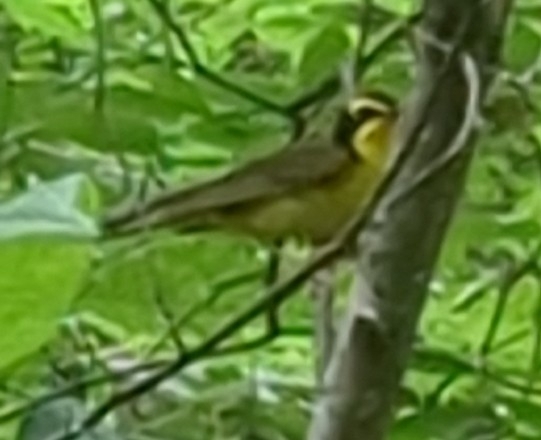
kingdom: Animalia
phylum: Chordata
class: Aves
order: Passeriformes
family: Parulidae
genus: Geothlypis
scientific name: Geothlypis formosa
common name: Kentucky warbler
